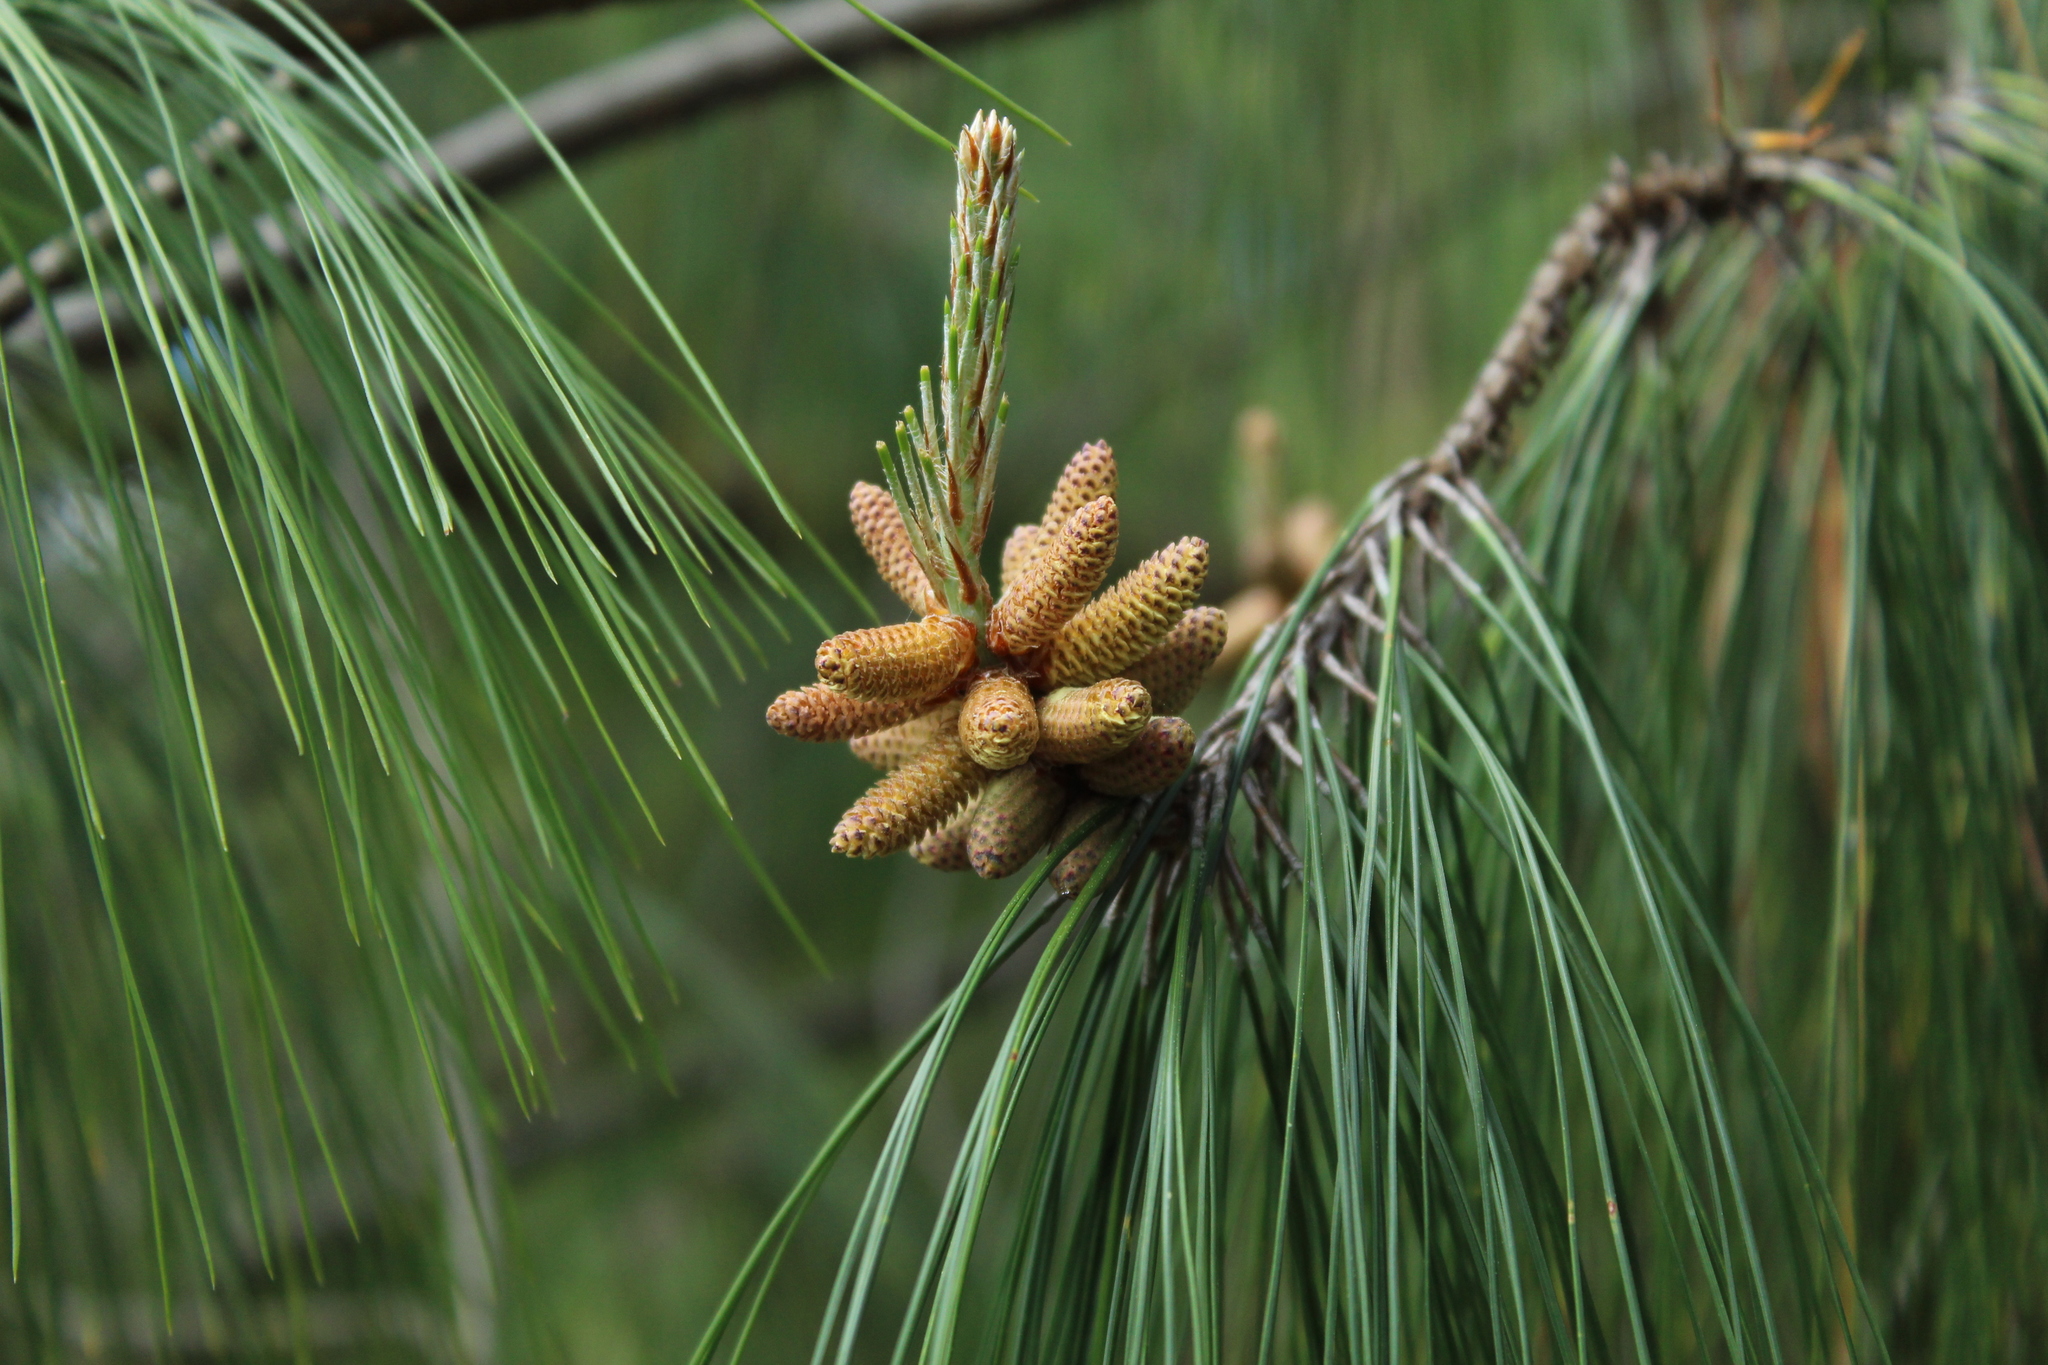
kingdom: Plantae
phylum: Tracheophyta
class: Pinopsida
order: Pinales
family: Pinaceae
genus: Pinus
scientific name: Pinus patula
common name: Mexican weeping pine
